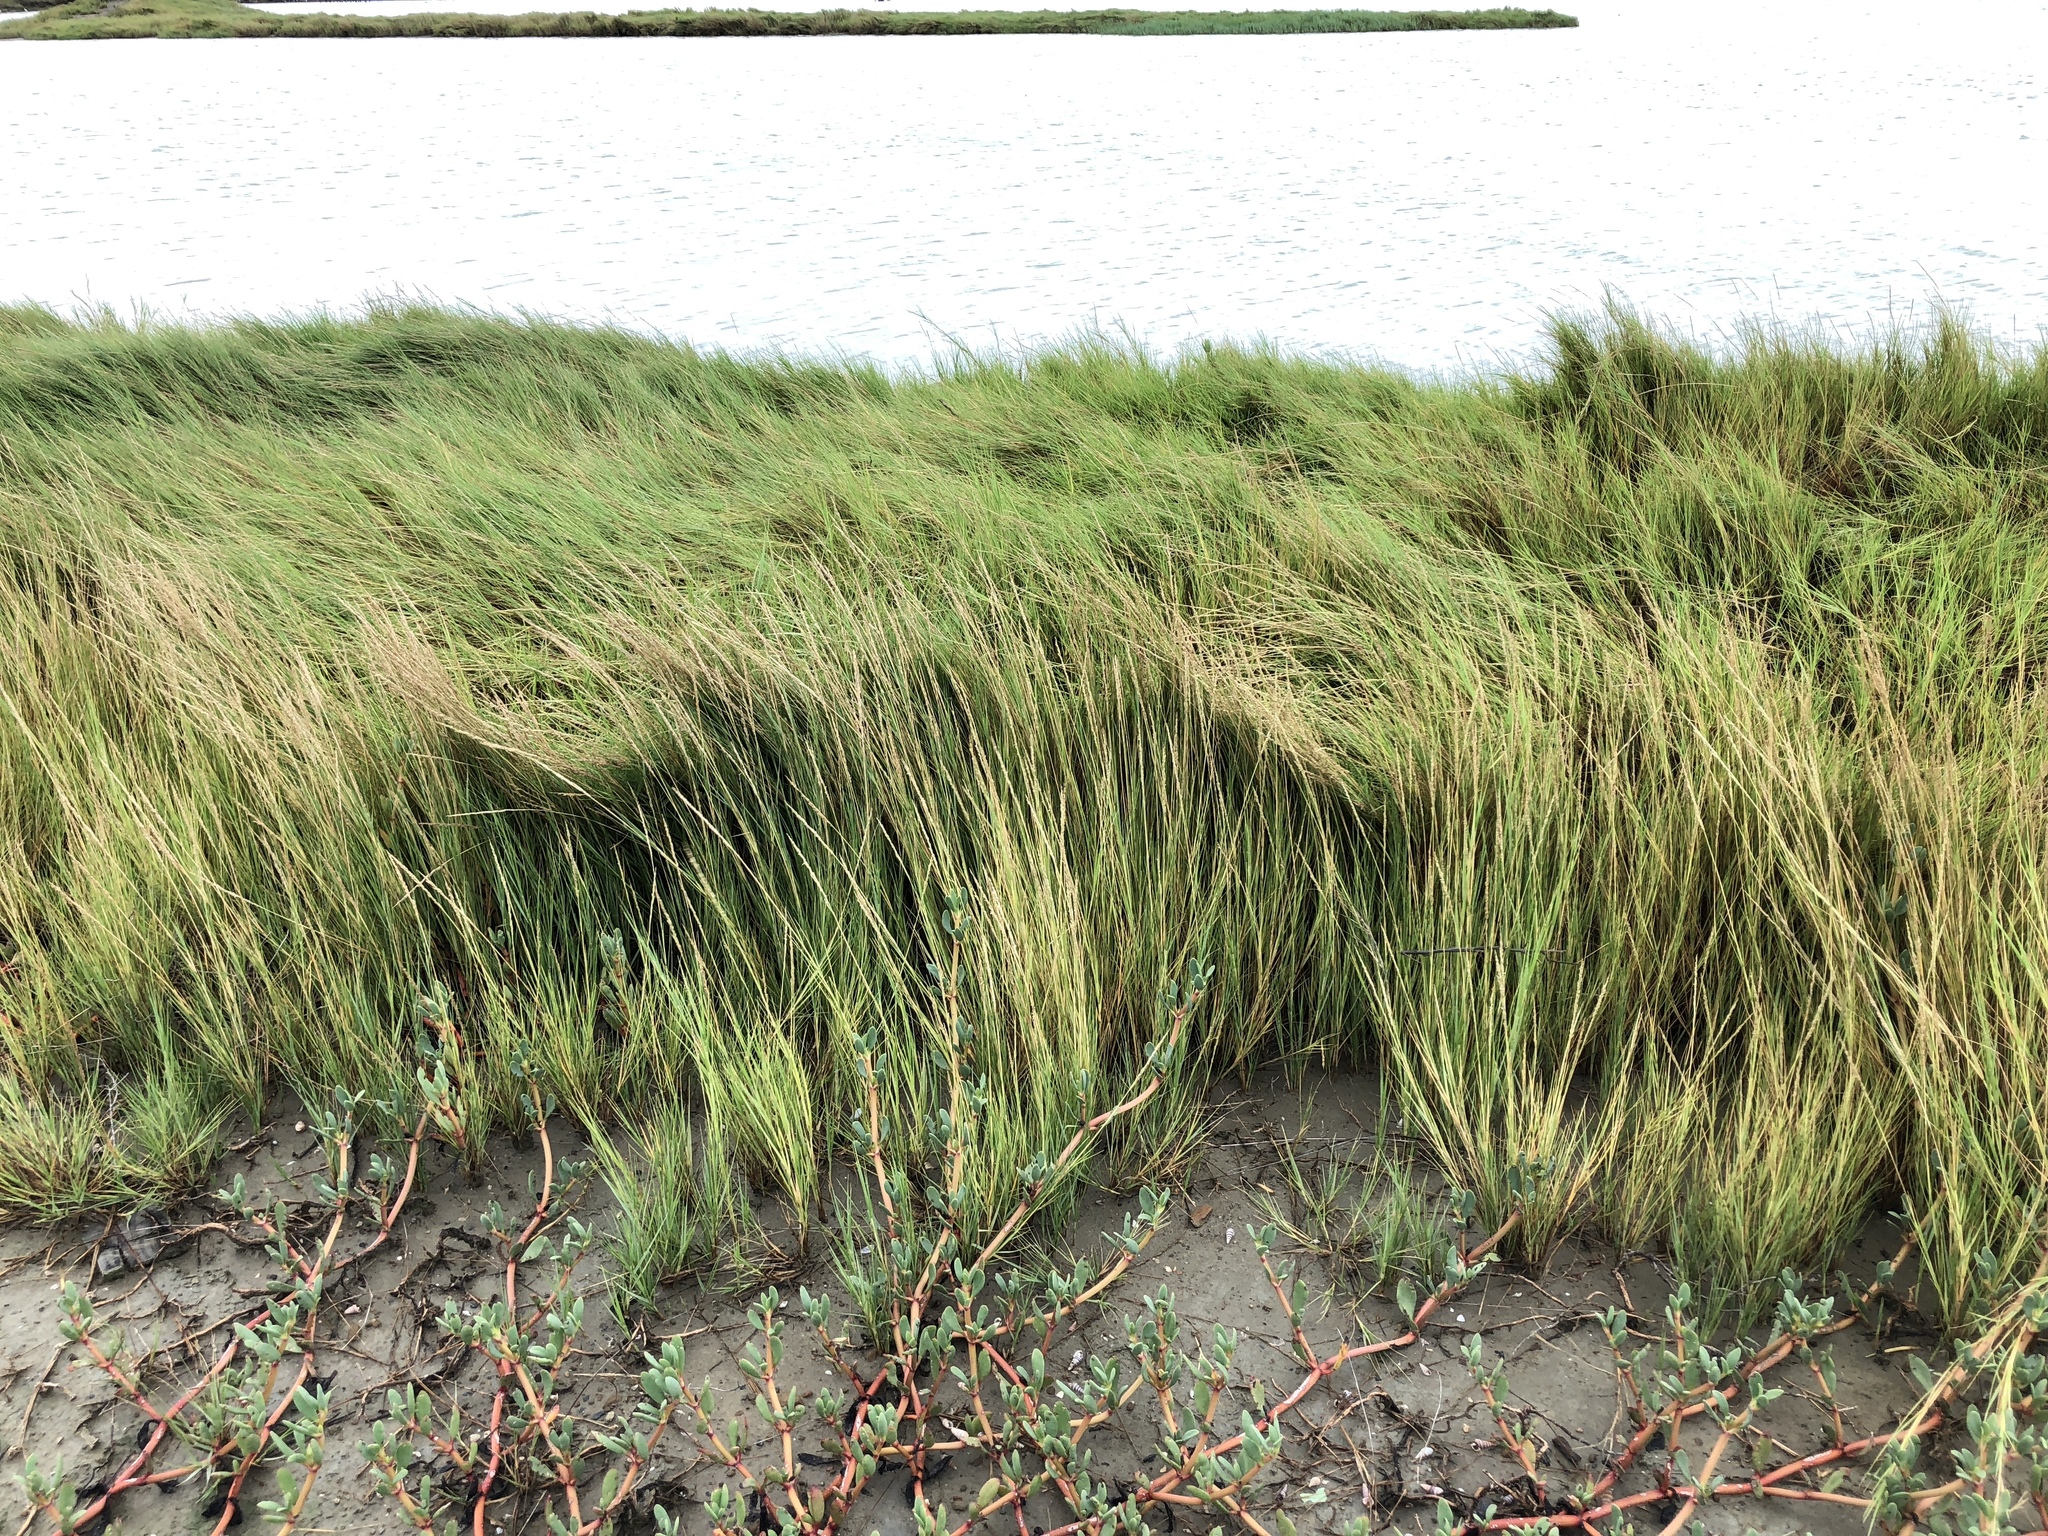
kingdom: Plantae
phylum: Tracheophyta
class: Liliopsida
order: Poales
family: Poaceae
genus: Sporobolus
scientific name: Sporobolus virginicus
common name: Beach dropseed
